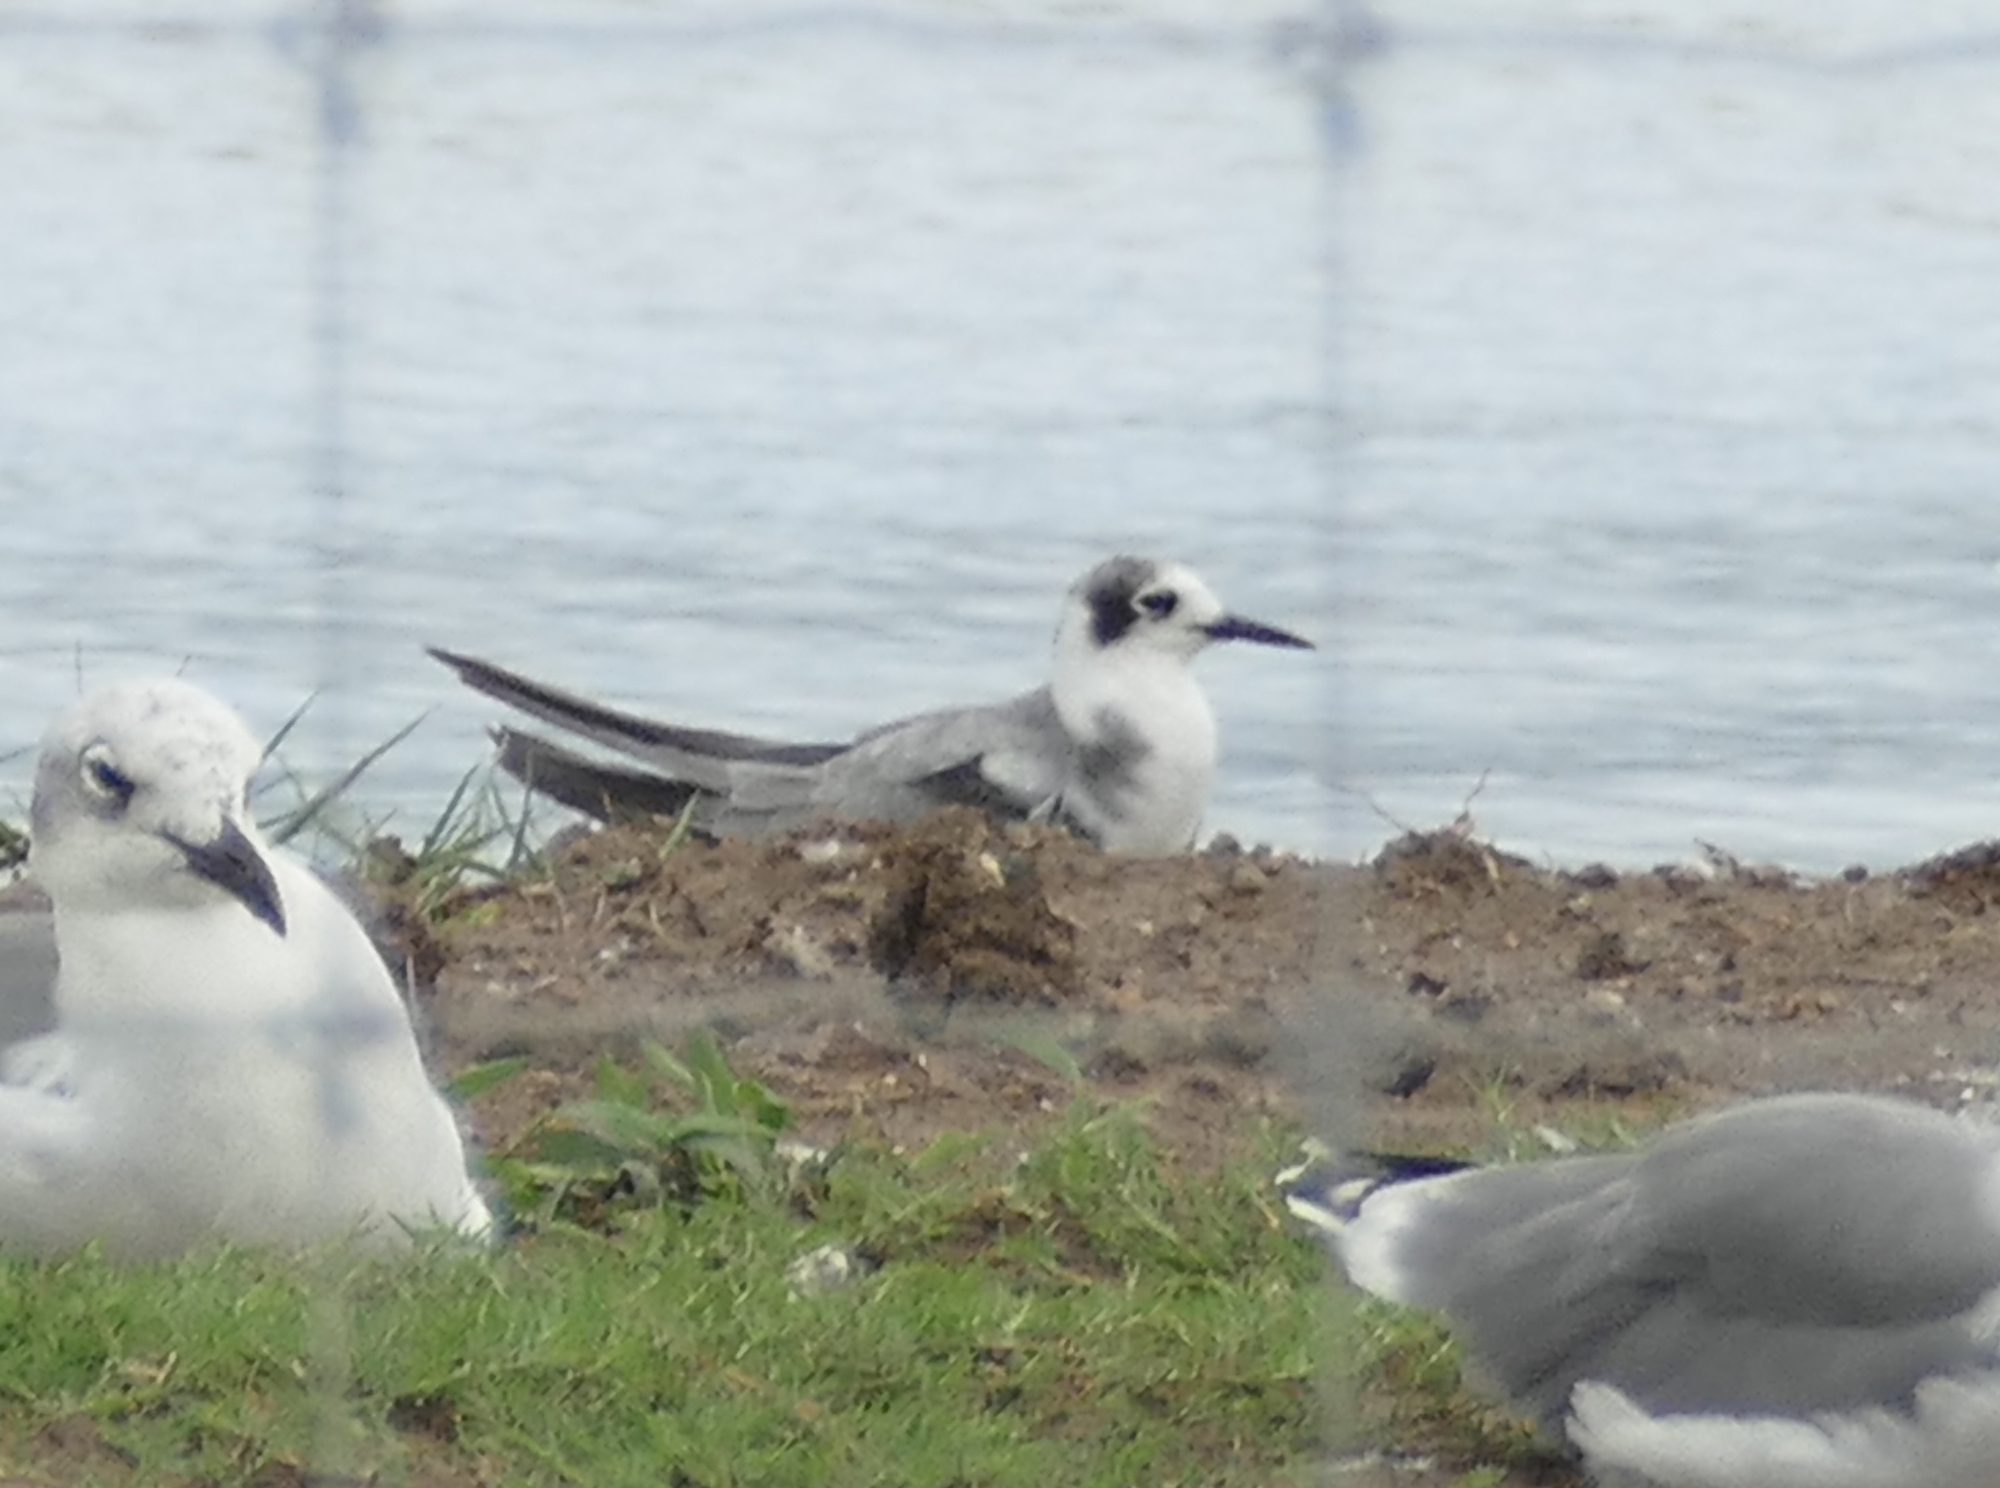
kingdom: Animalia
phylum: Chordata
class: Aves
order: Charadriiformes
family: Laridae
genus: Chlidonias
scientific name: Chlidonias niger
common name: Black tern
